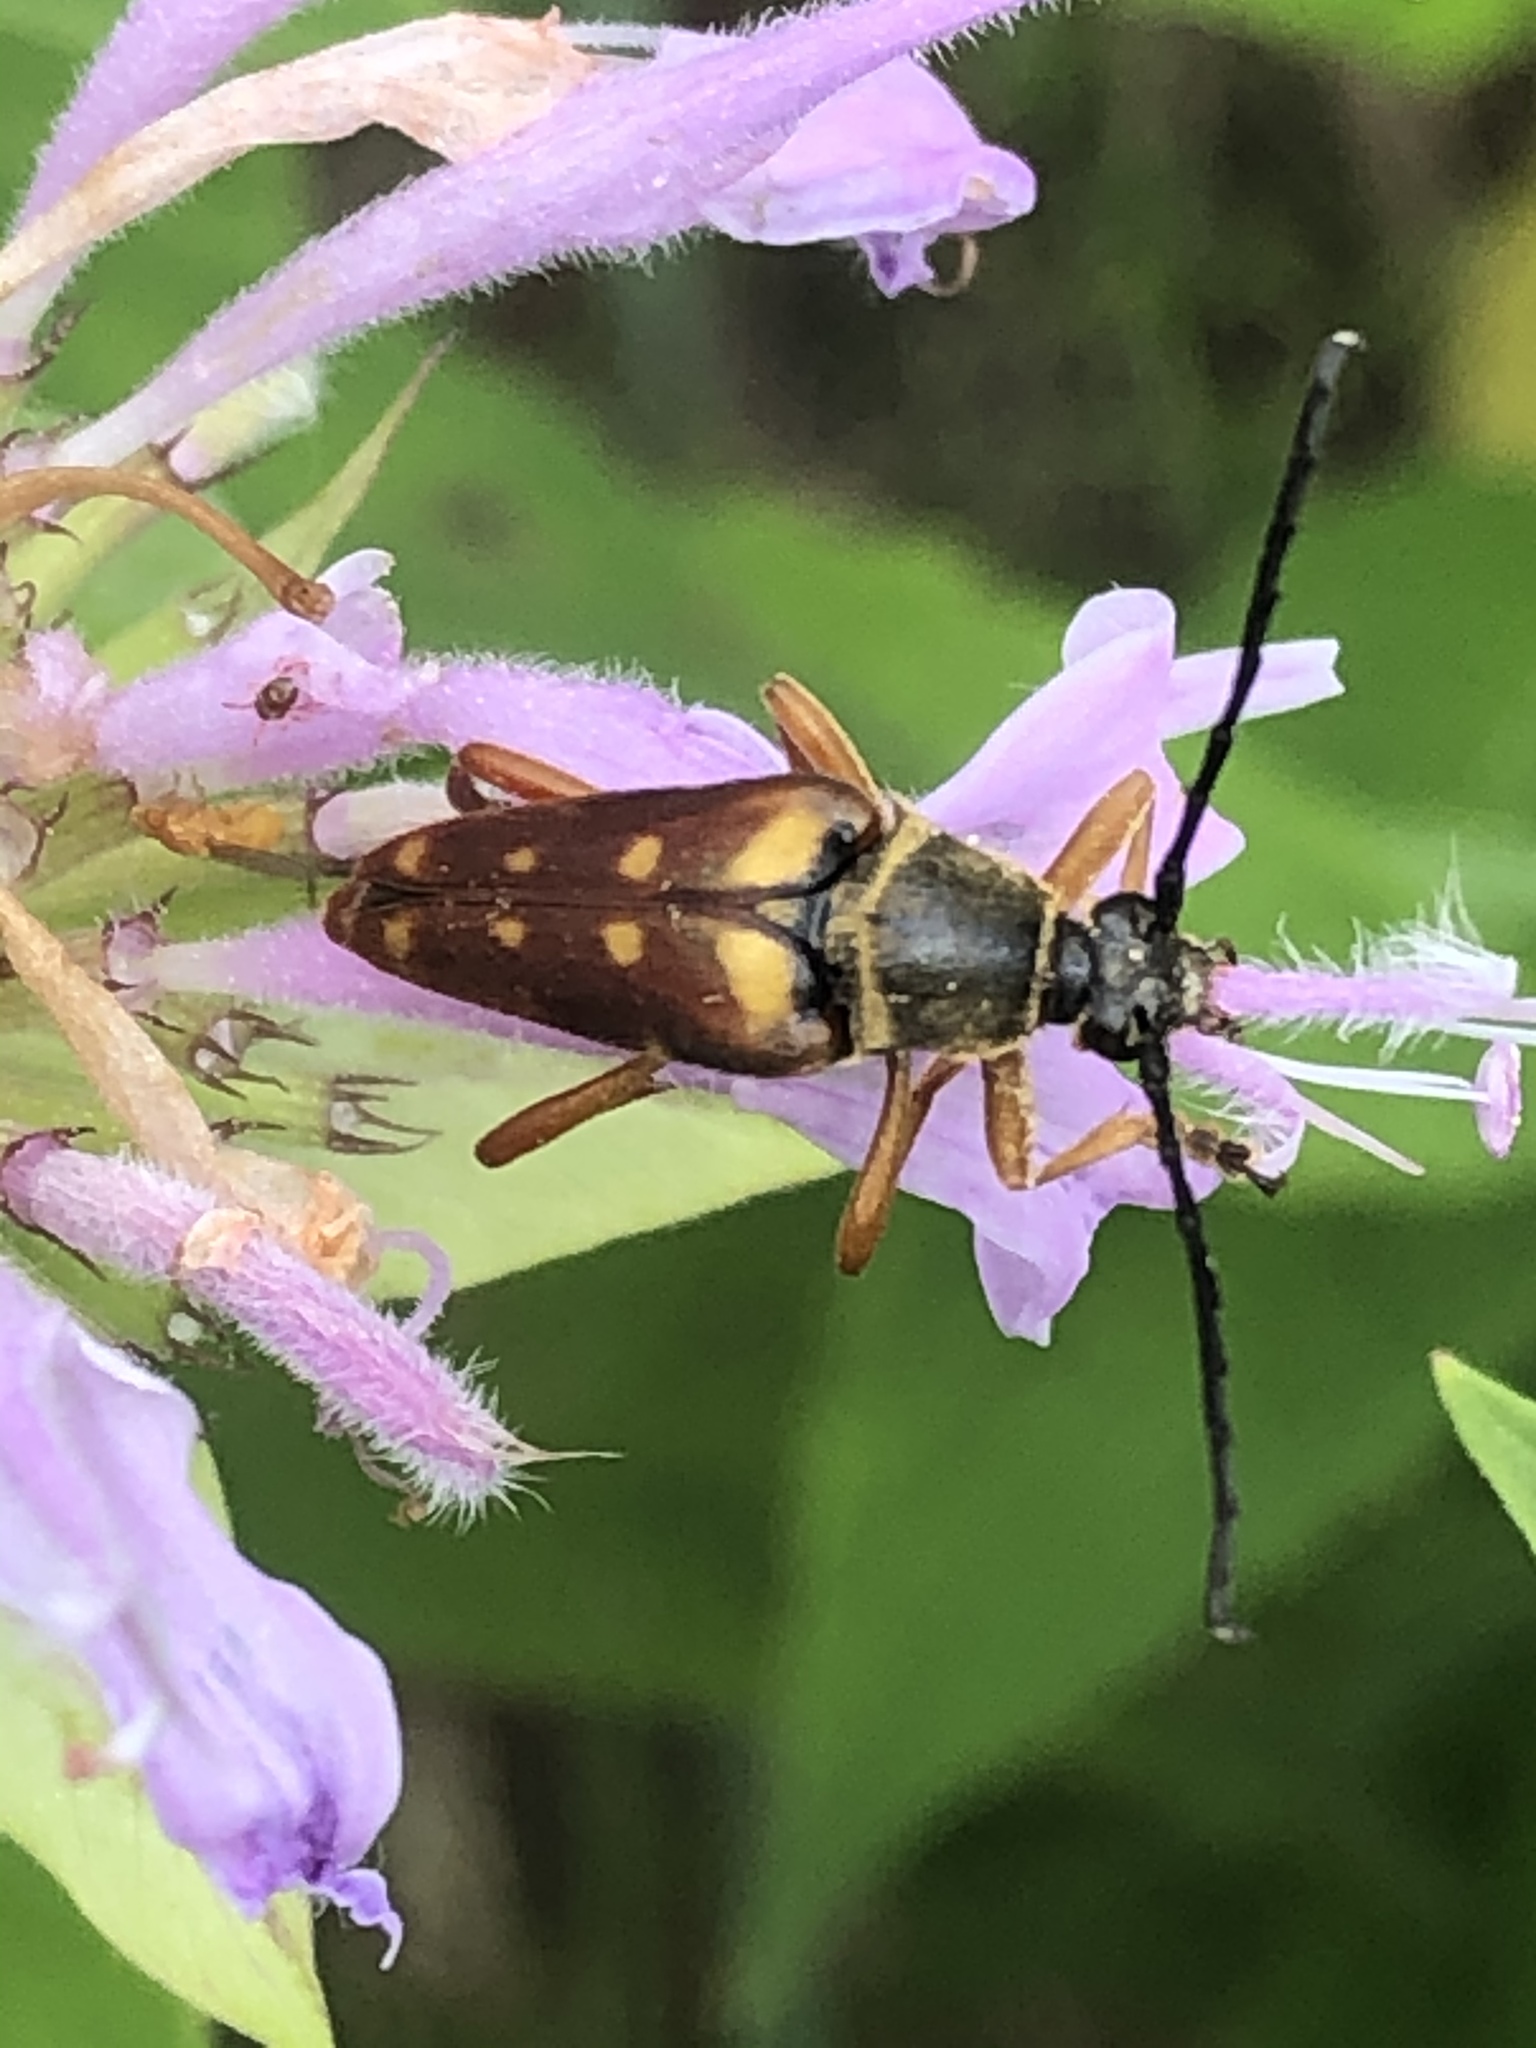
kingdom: Animalia
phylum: Arthropoda
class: Insecta
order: Coleoptera
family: Cerambycidae
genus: Typocerus
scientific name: Typocerus velutinus
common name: Banded longhorn beetle
